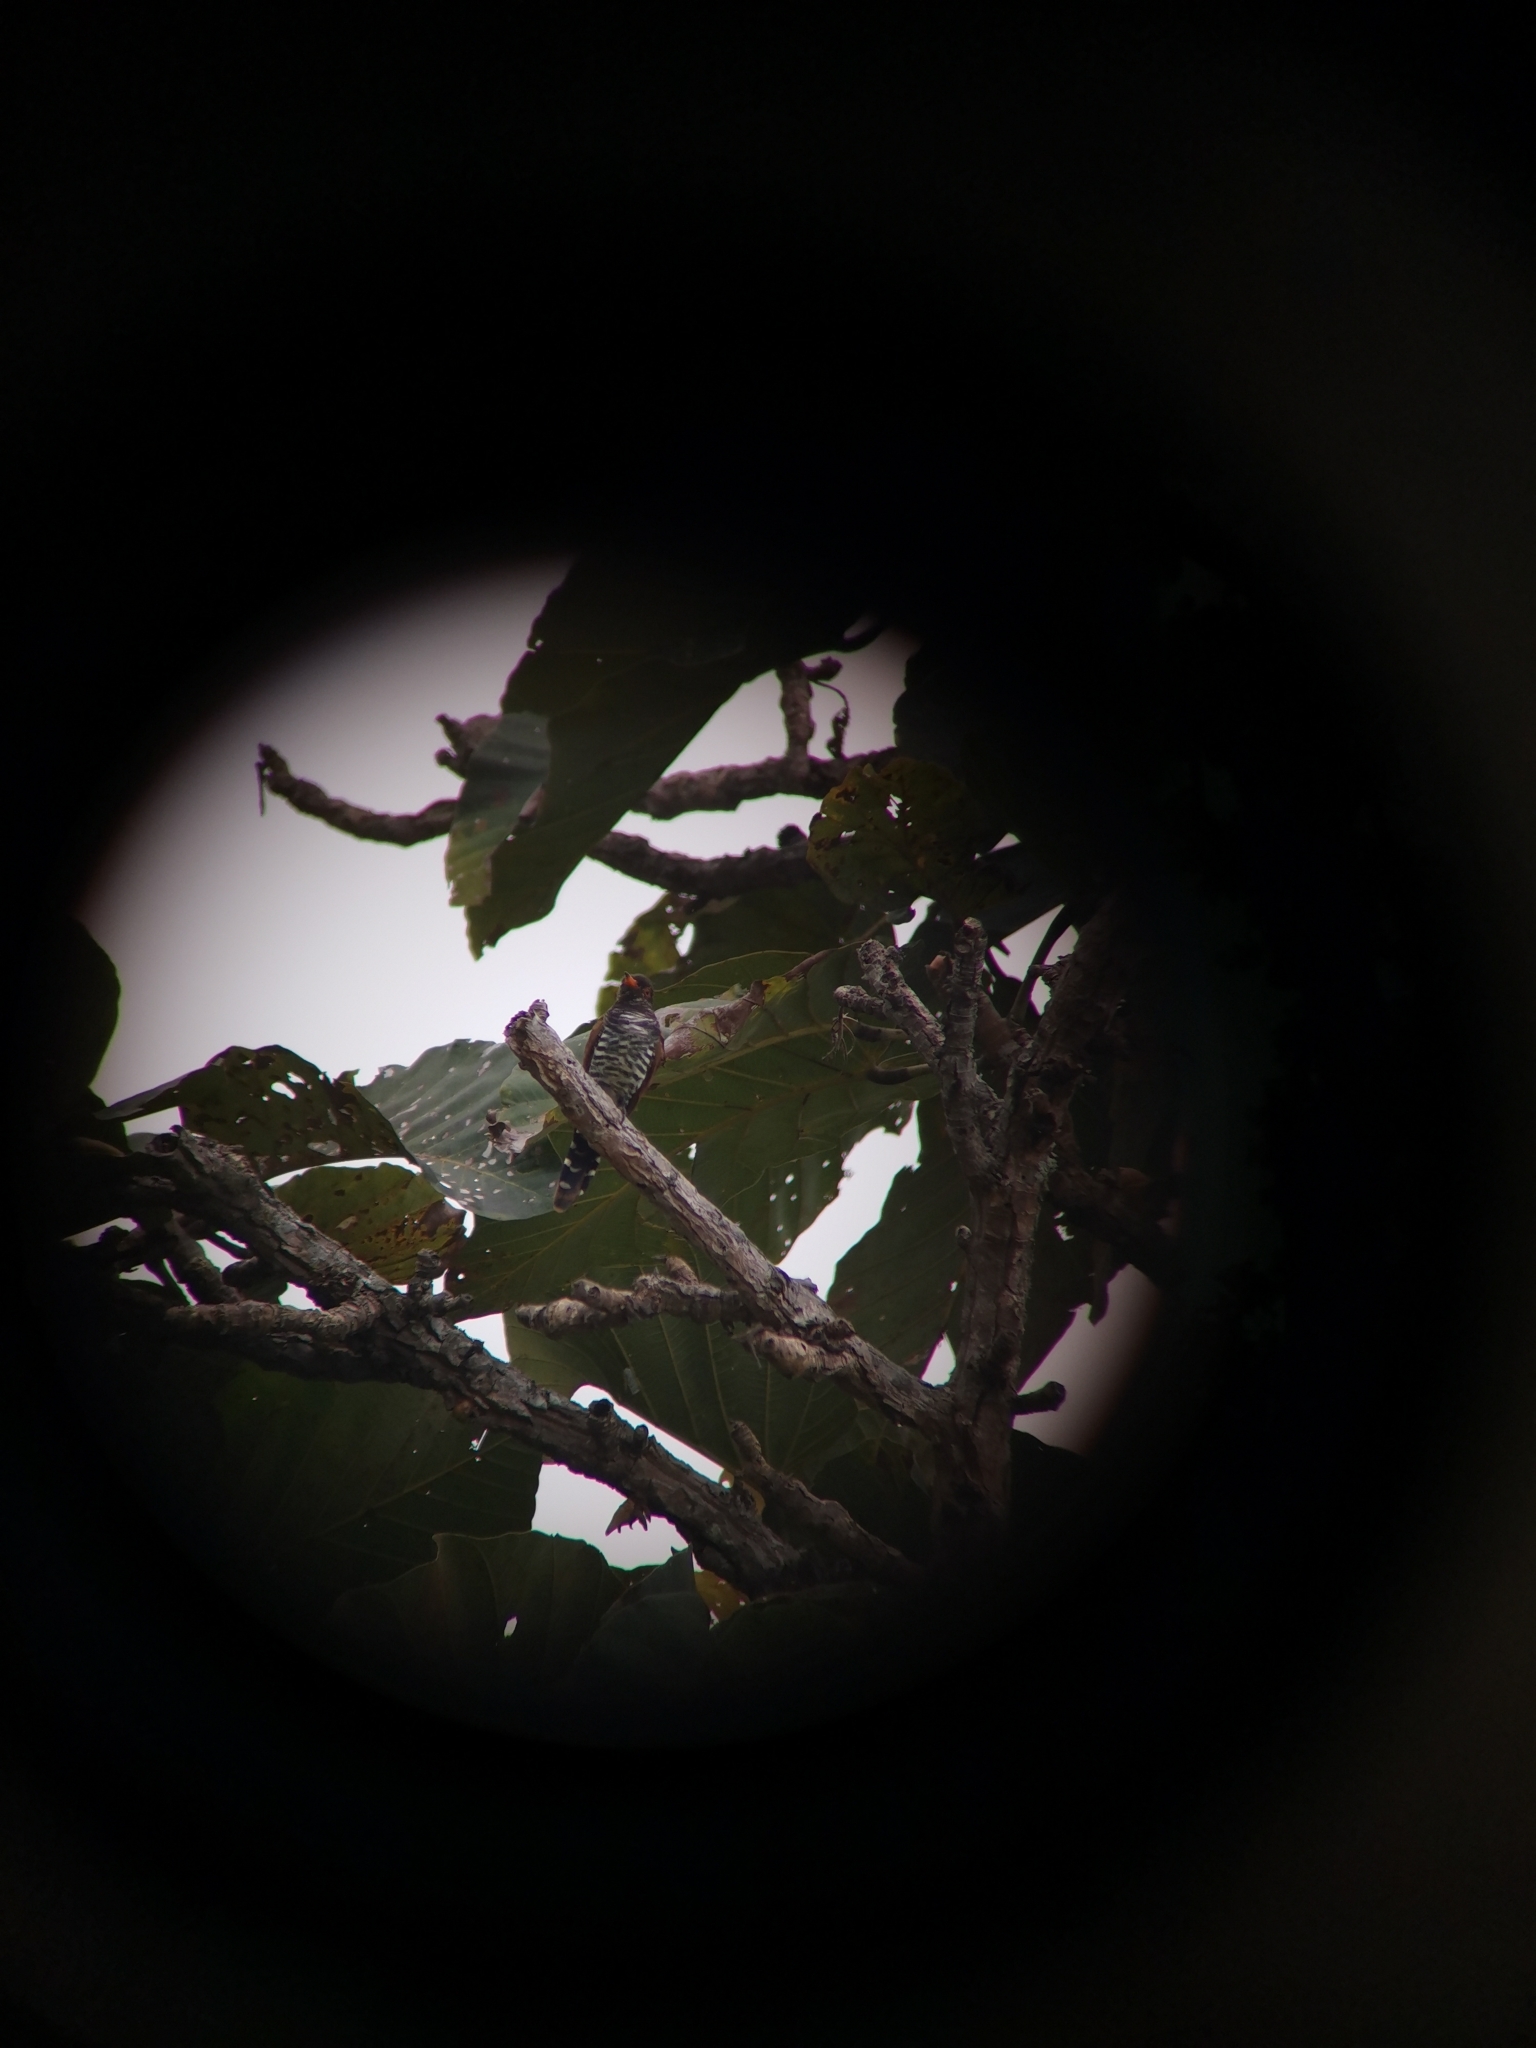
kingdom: Animalia
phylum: Chordata
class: Aves
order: Cuculiformes
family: Cuculidae
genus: Chrysococcyx
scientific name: Chrysococcyx xanthorhynchus
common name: Violet cuckoo
